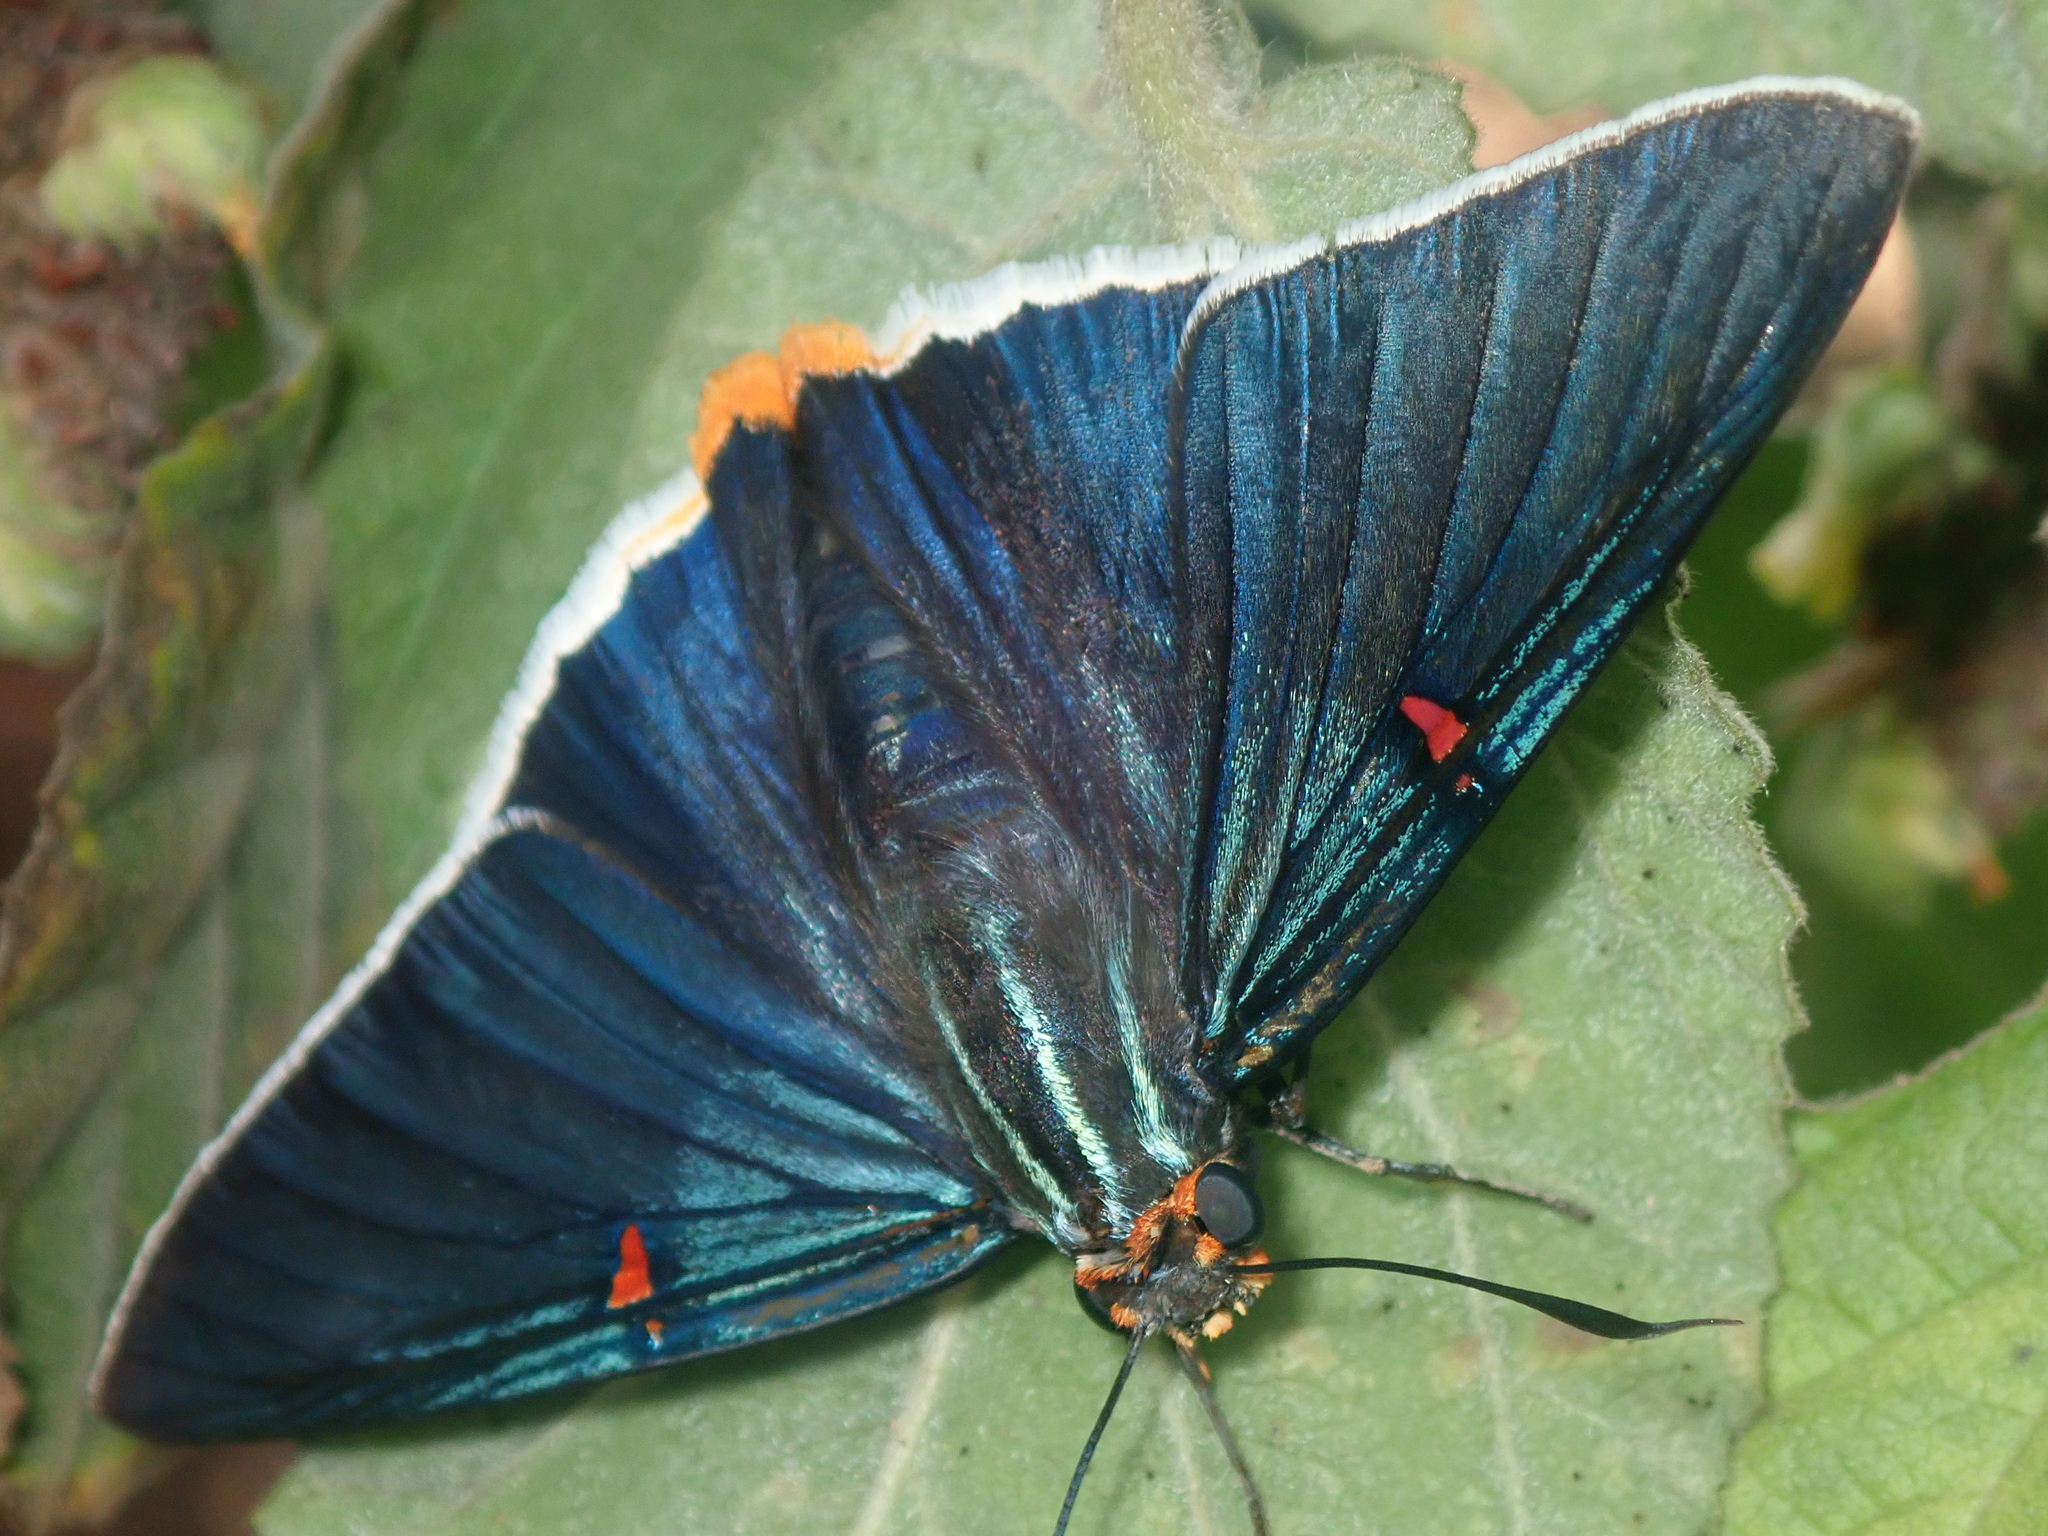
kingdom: Animalia
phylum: Arthropoda
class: Insecta
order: Lepidoptera
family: Hesperiidae
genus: Phocides
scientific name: Phocides polybius
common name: Guava skipper
